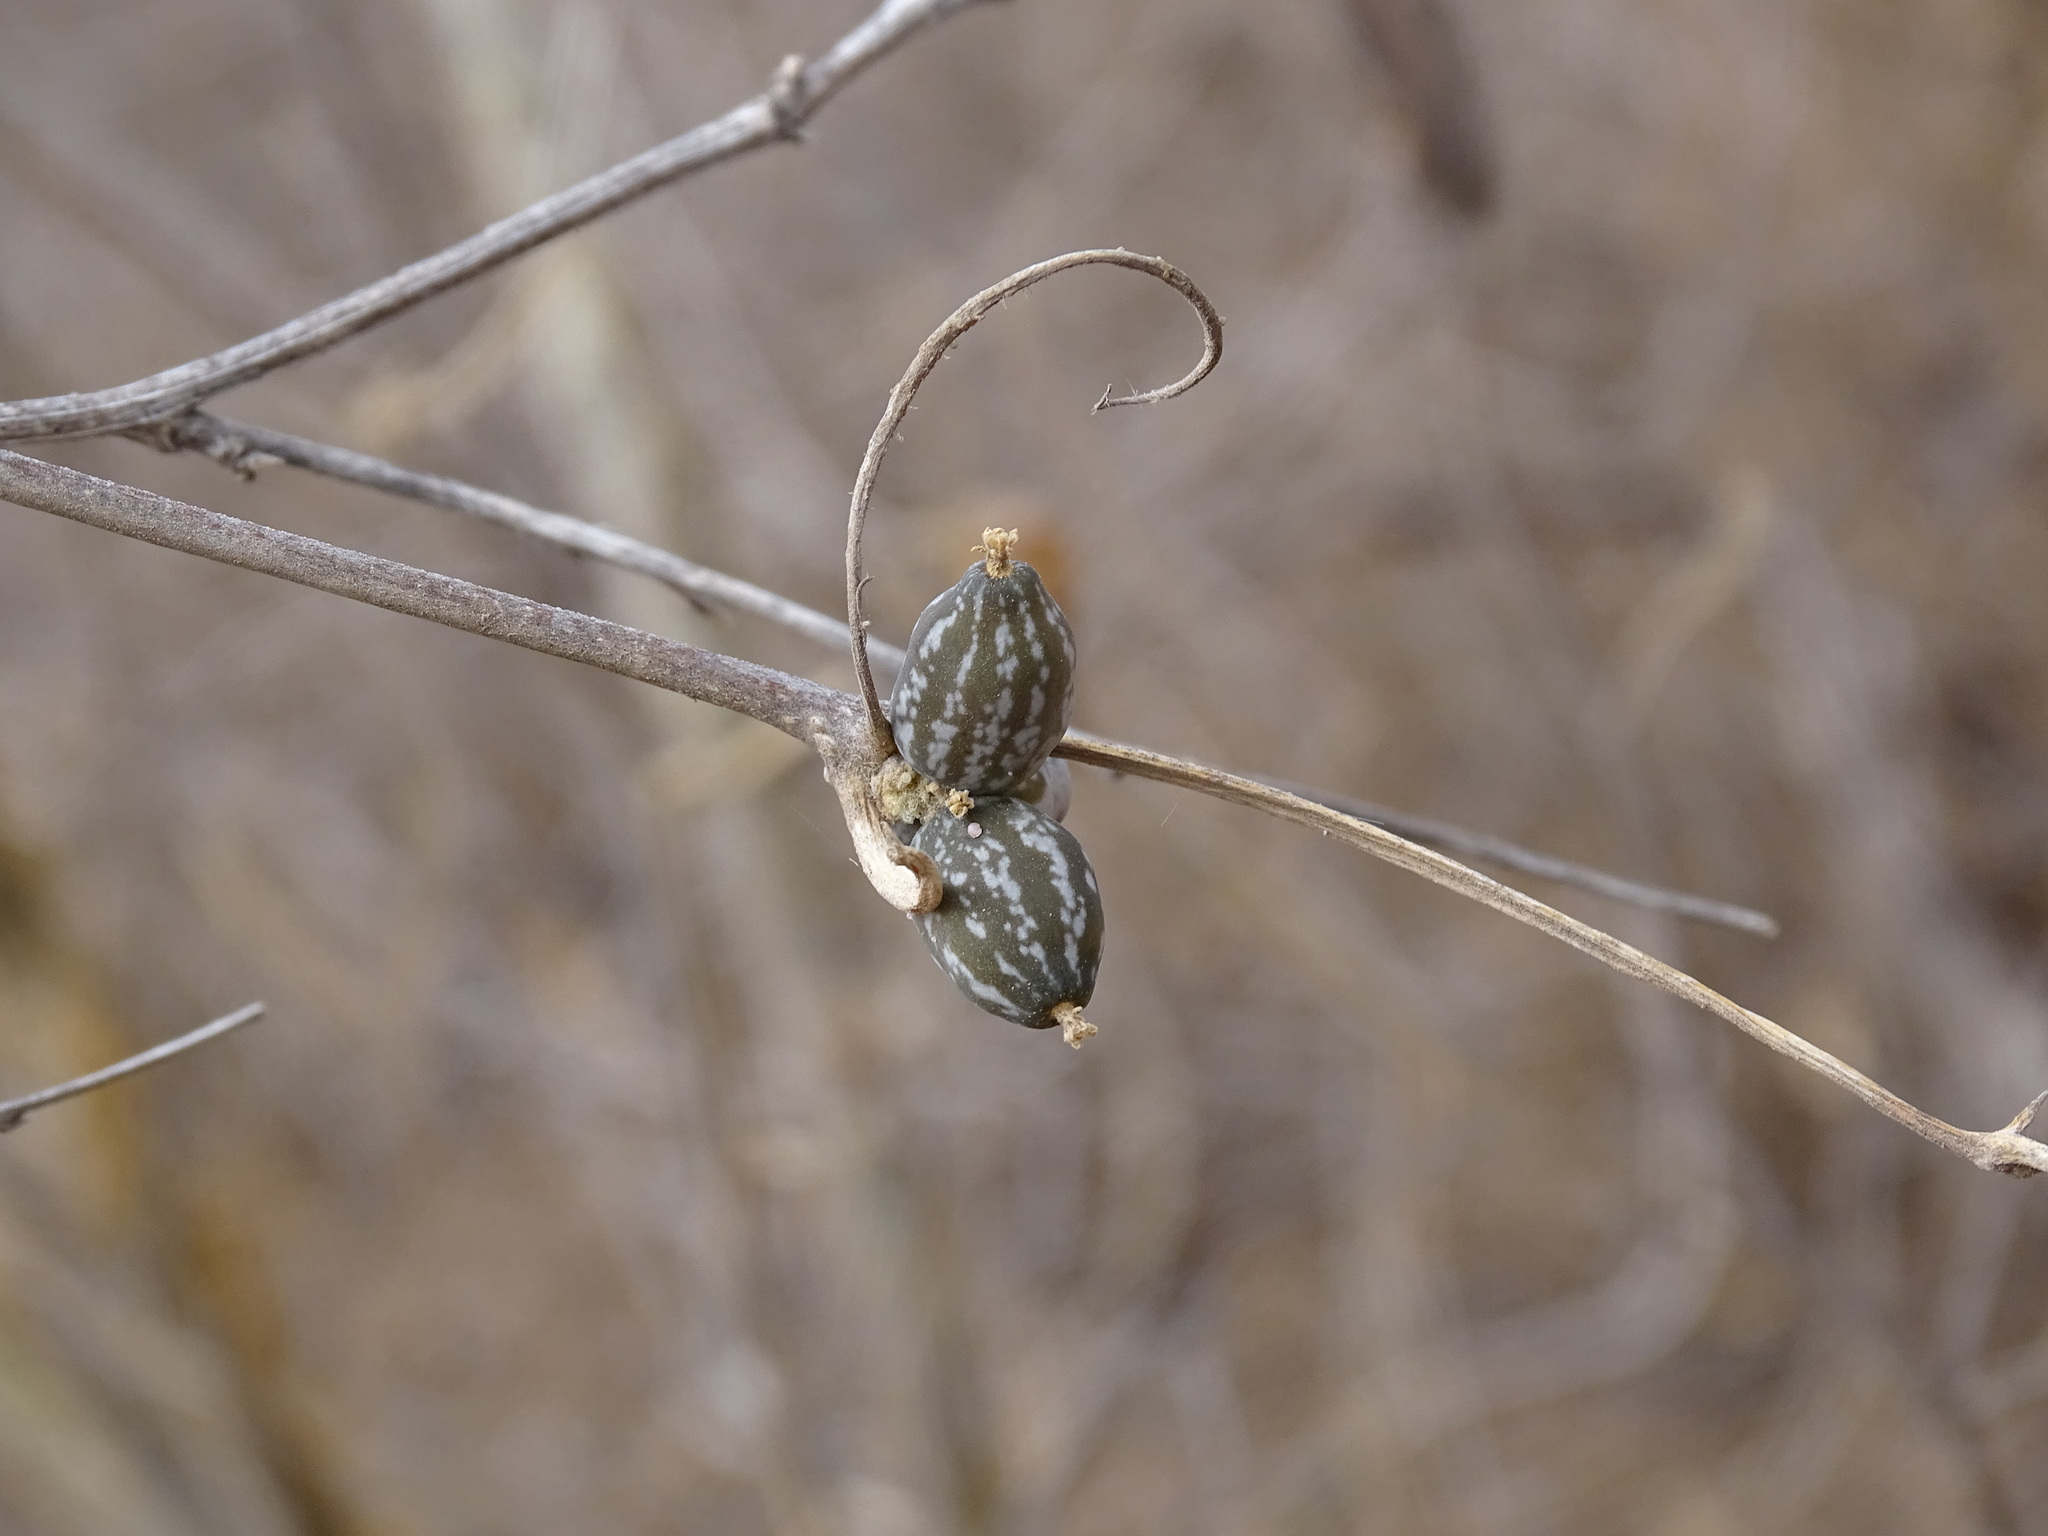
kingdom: Plantae
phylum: Tracheophyta
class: Magnoliopsida
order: Cucurbitales
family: Cucurbitaceae
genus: Doyerea
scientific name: Doyerea emetocathartica
